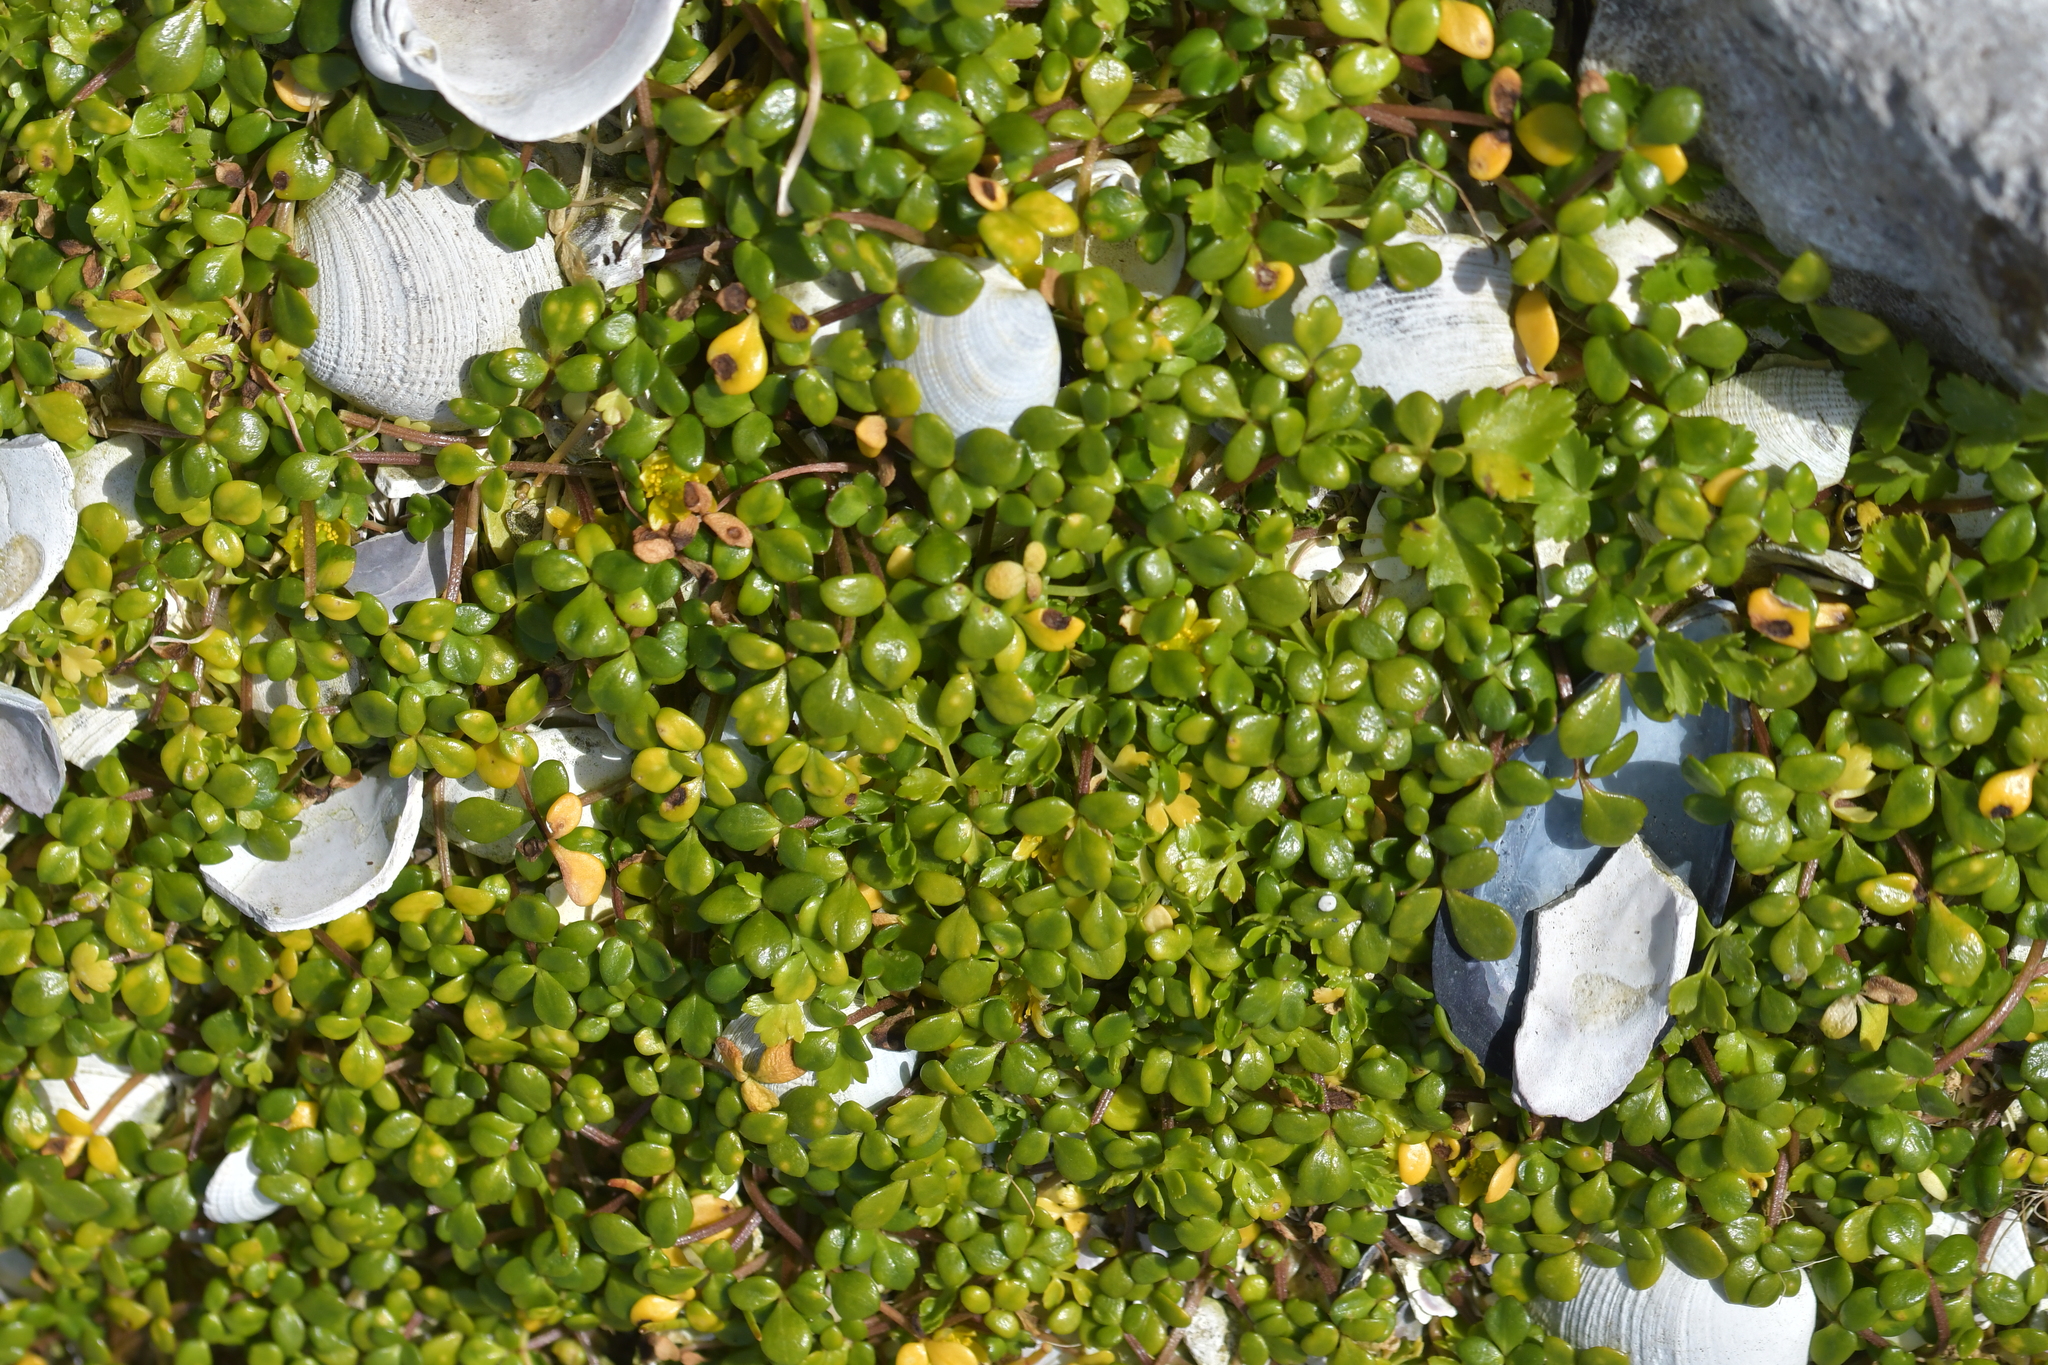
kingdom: Plantae
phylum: Tracheophyta
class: Magnoliopsida
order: Ranunculales
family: Ranunculaceae
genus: Ranunculus
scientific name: Ranunculus acaulis
